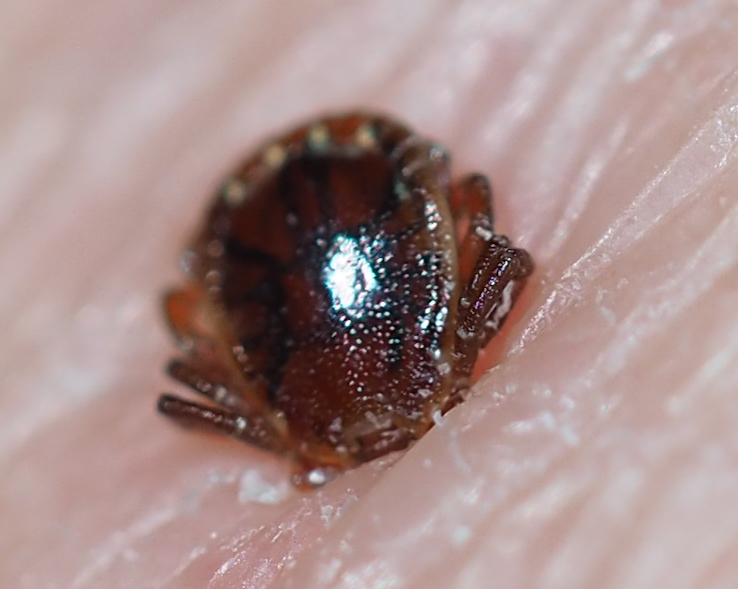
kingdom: Animalia
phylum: Arthropoda
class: Arachnida
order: Ixodida
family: Ixodidae
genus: Amblyomma
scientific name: Amblyomma americanum
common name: Lone star tick
